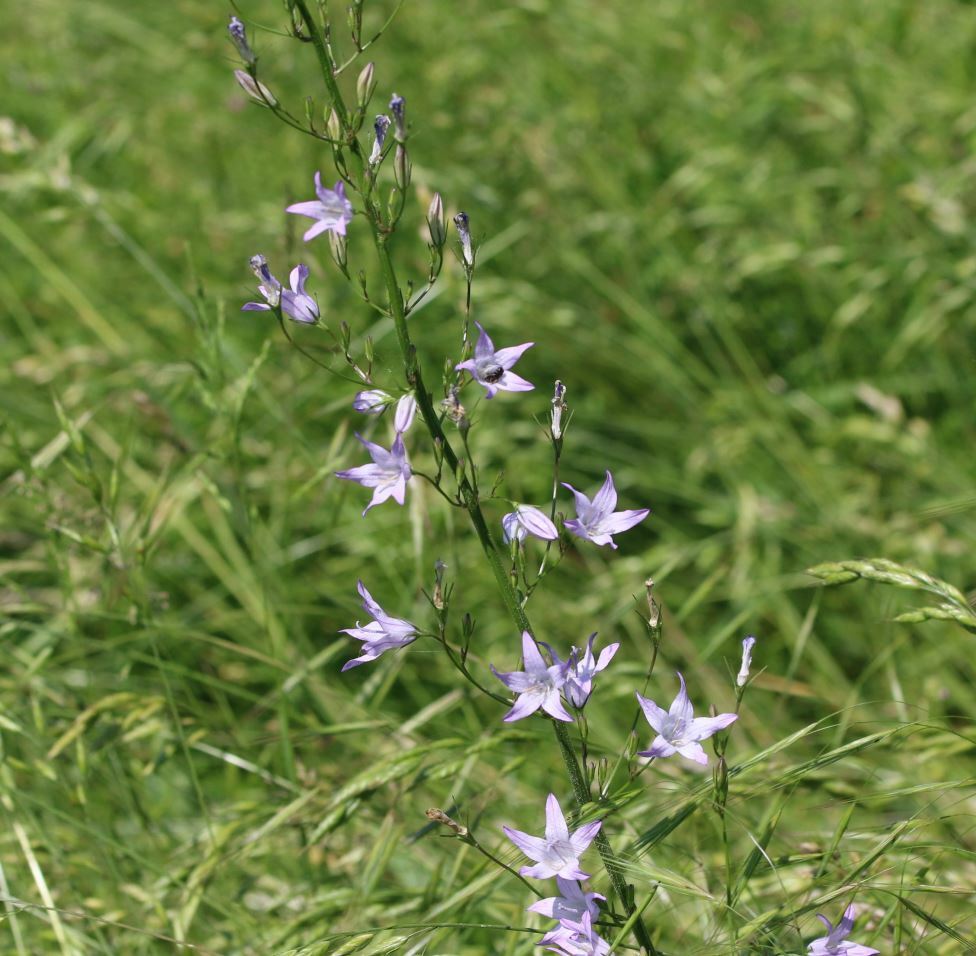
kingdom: Plantae
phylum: Tracheophyta
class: Magnoliopsida
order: Asterales
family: Campanulaceae
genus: Campanula
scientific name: Campanula rapunculus
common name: Rampion bellflower
